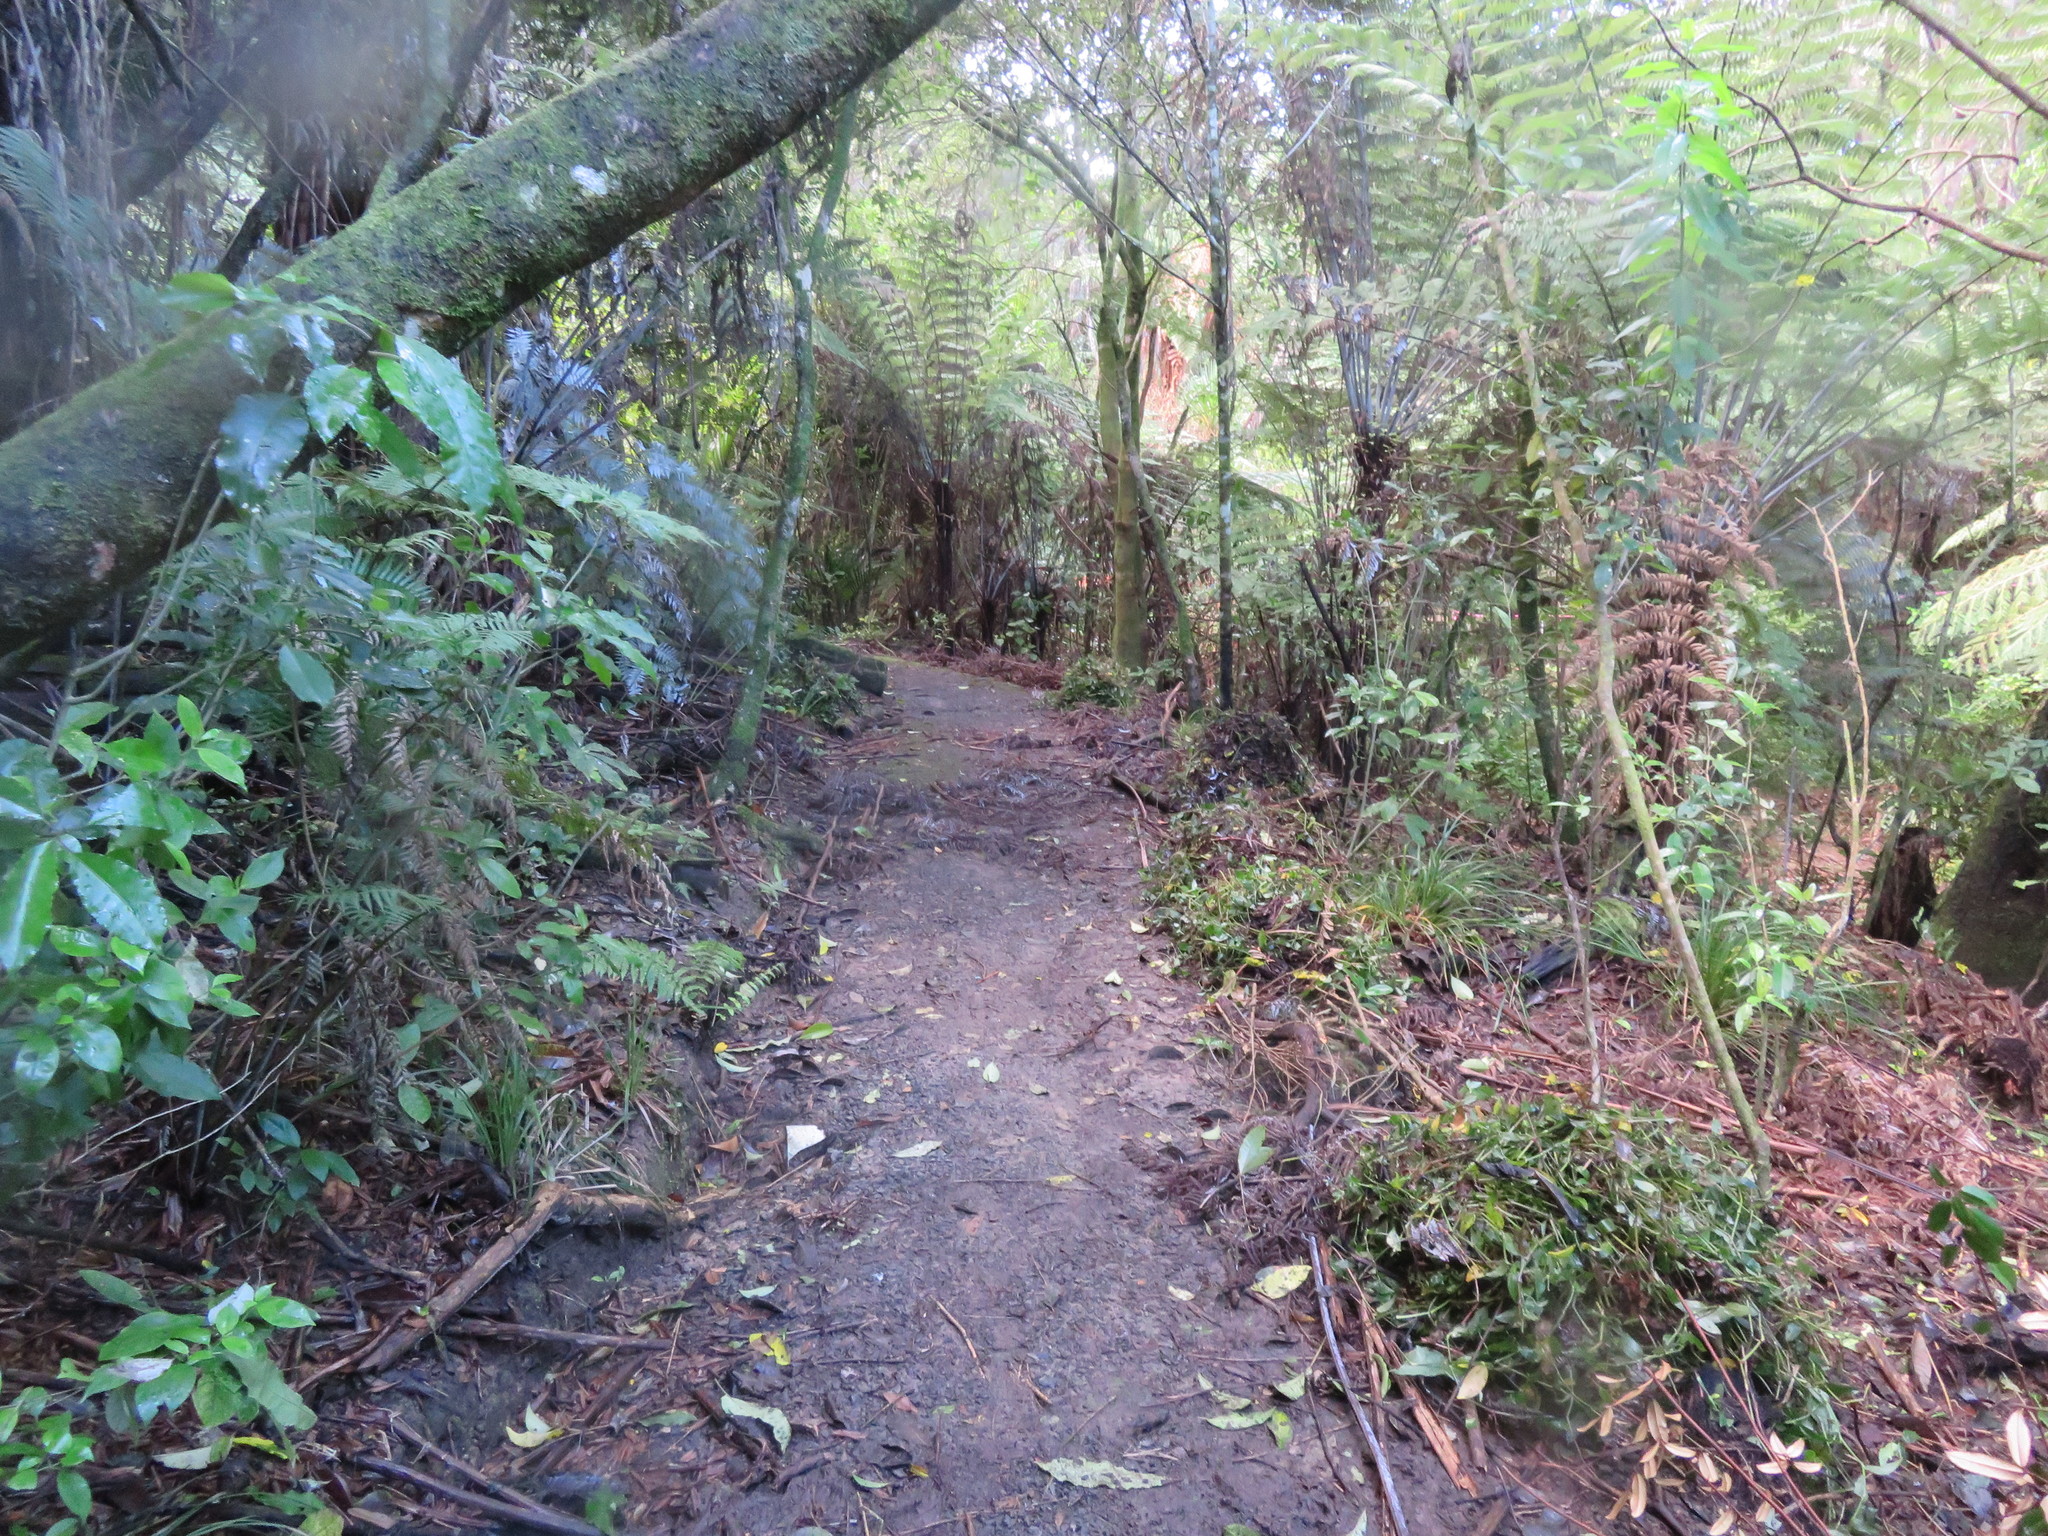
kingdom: Plantae
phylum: Tracheophyta
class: Liliopsida
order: Commelinales
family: Commelinaceae
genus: Tradescantia
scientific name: Tradescantia fluminensis
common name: Wandering-jew
